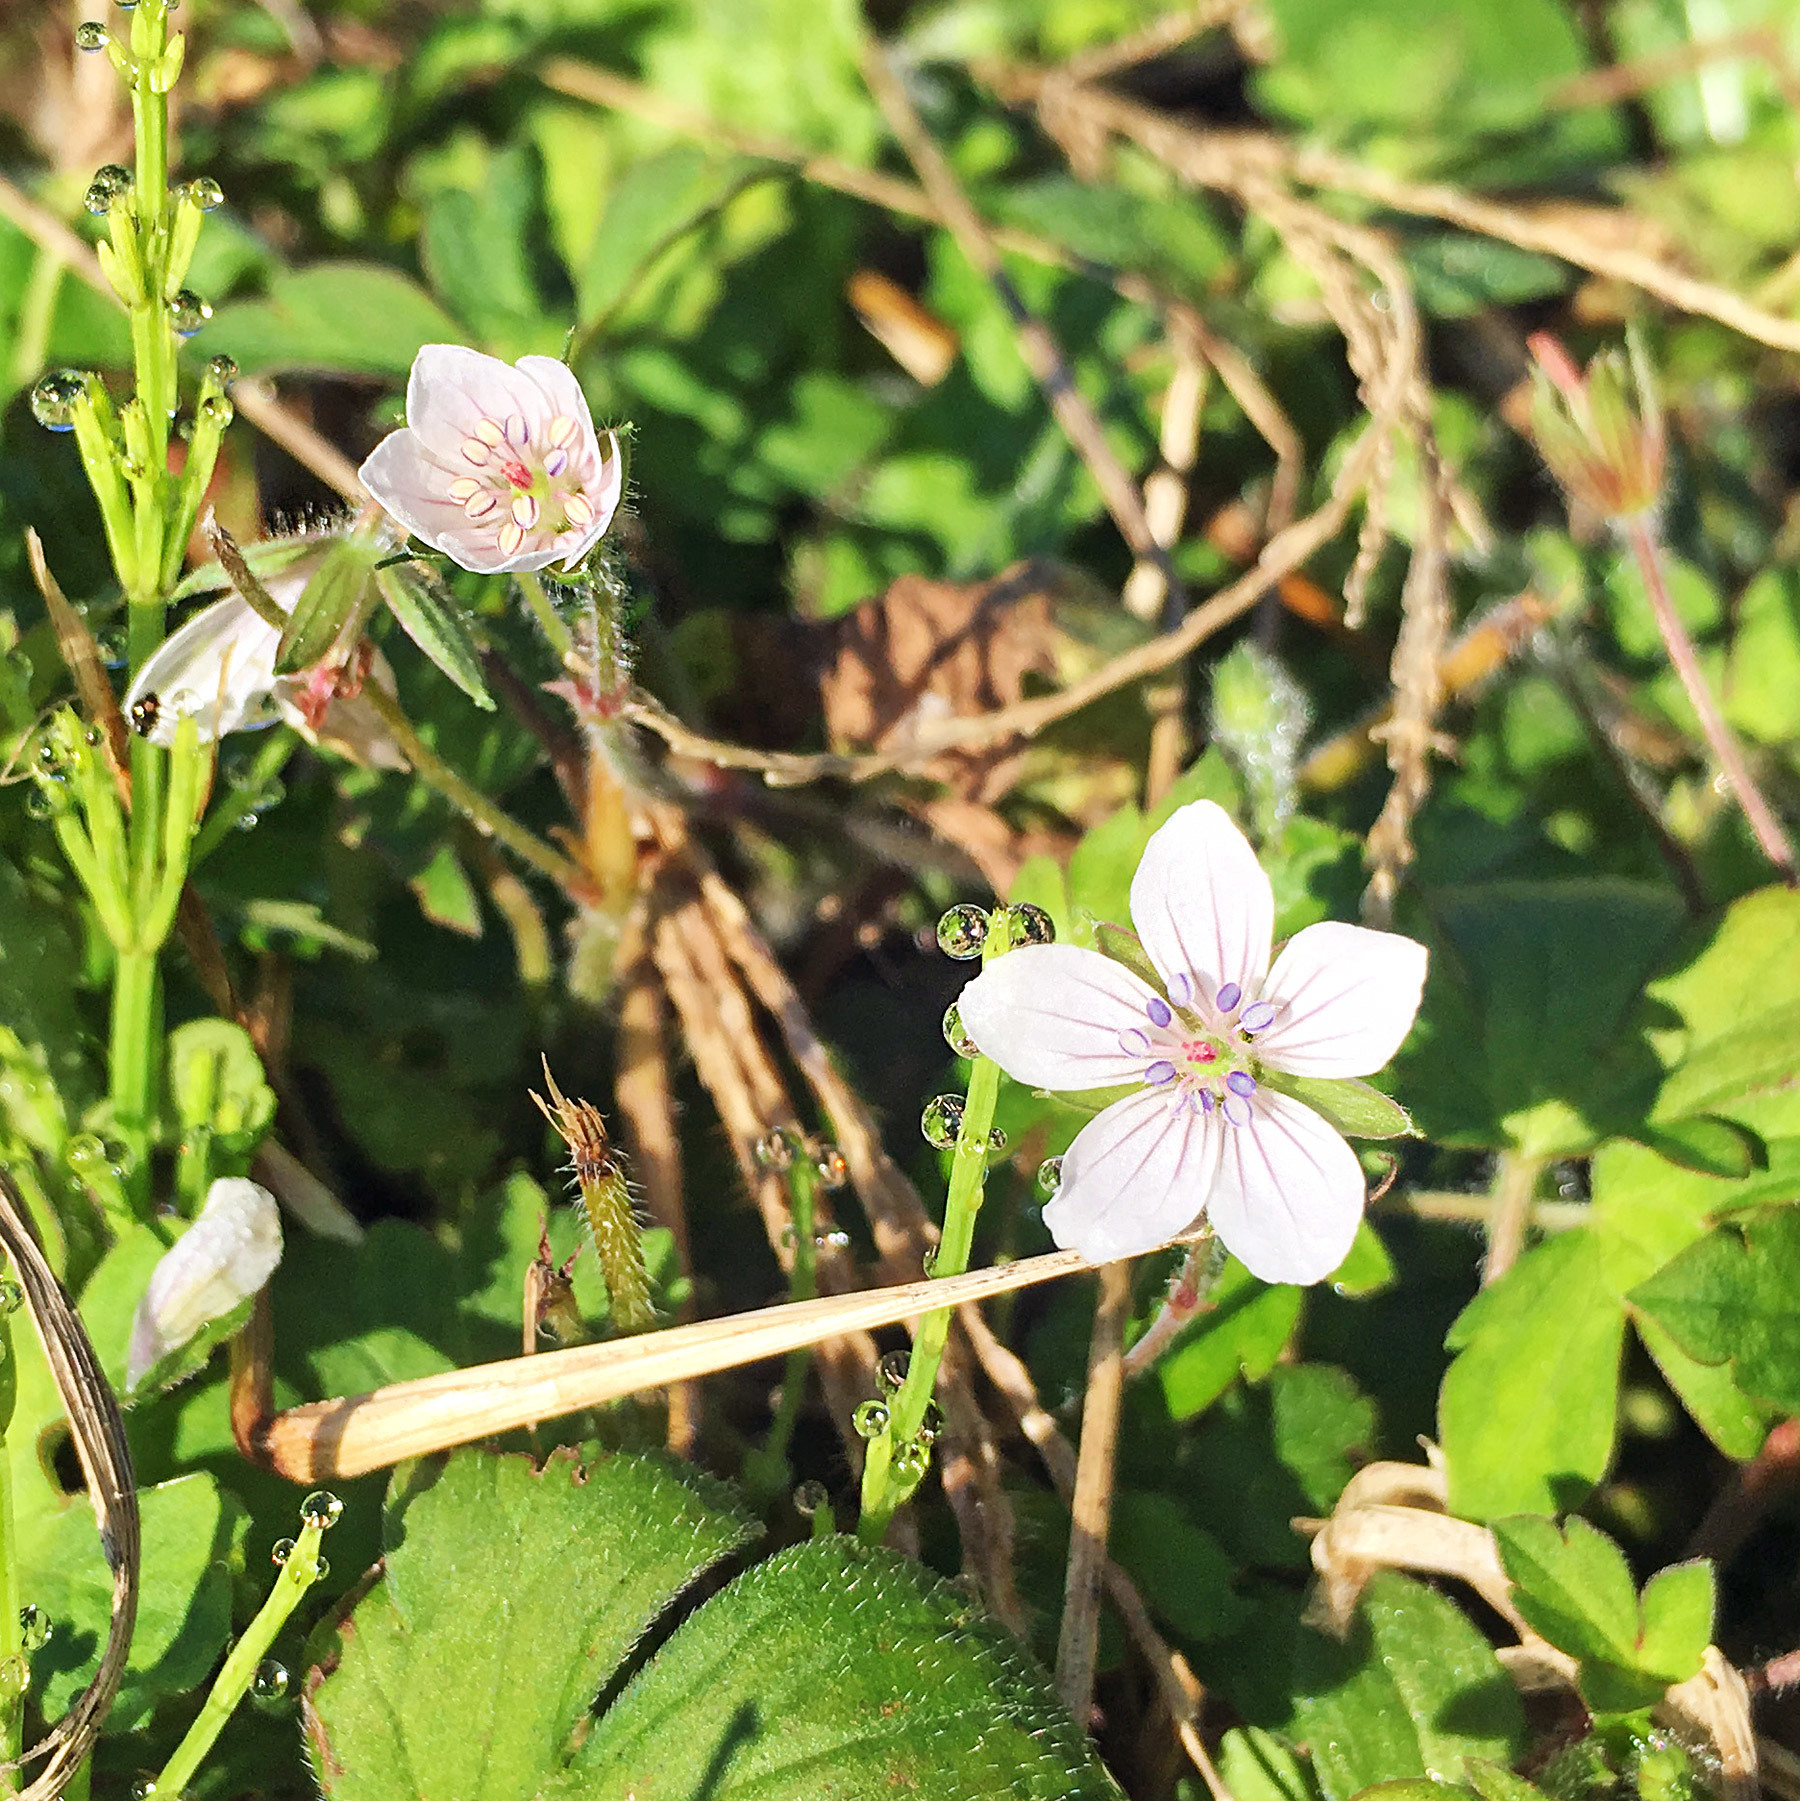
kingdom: Plantae
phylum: Tracheophyta
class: Magnoliopsida
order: Geraniales
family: Geraniaceae
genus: Geranium
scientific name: Geranium thunbergii
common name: Dewdrop crane's-bill
